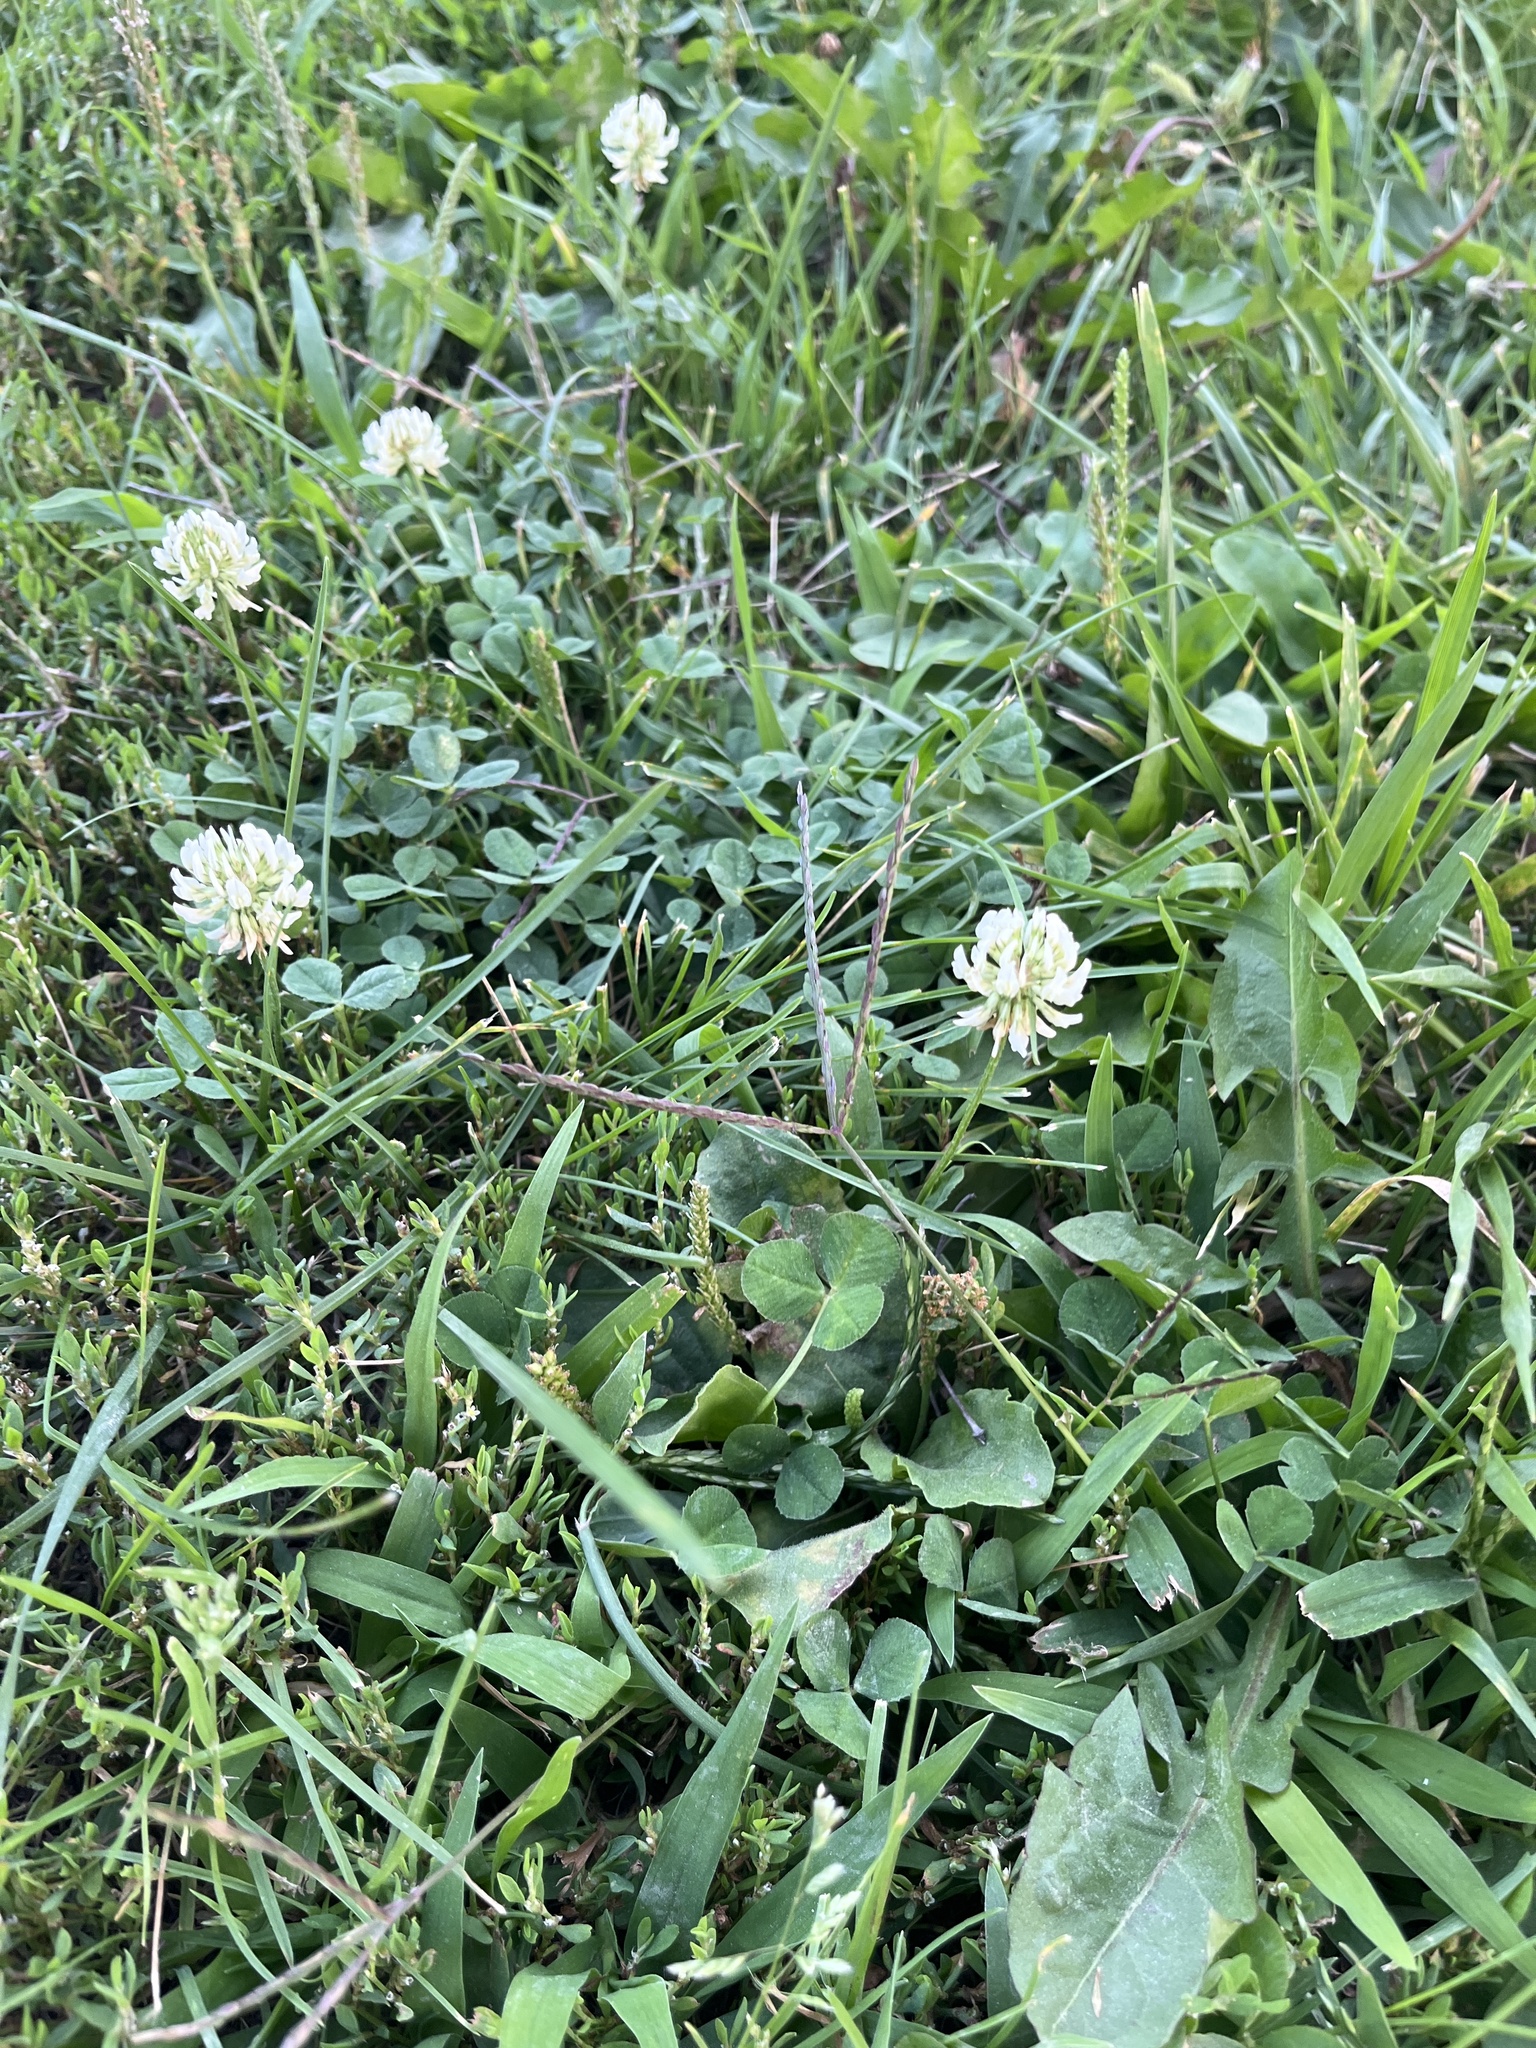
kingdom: Plantae
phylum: Tracheophyta
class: Magnoliopsida
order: Fabales
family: Fabaceae
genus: Trifolium
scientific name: Trifolium repens
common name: White clover
